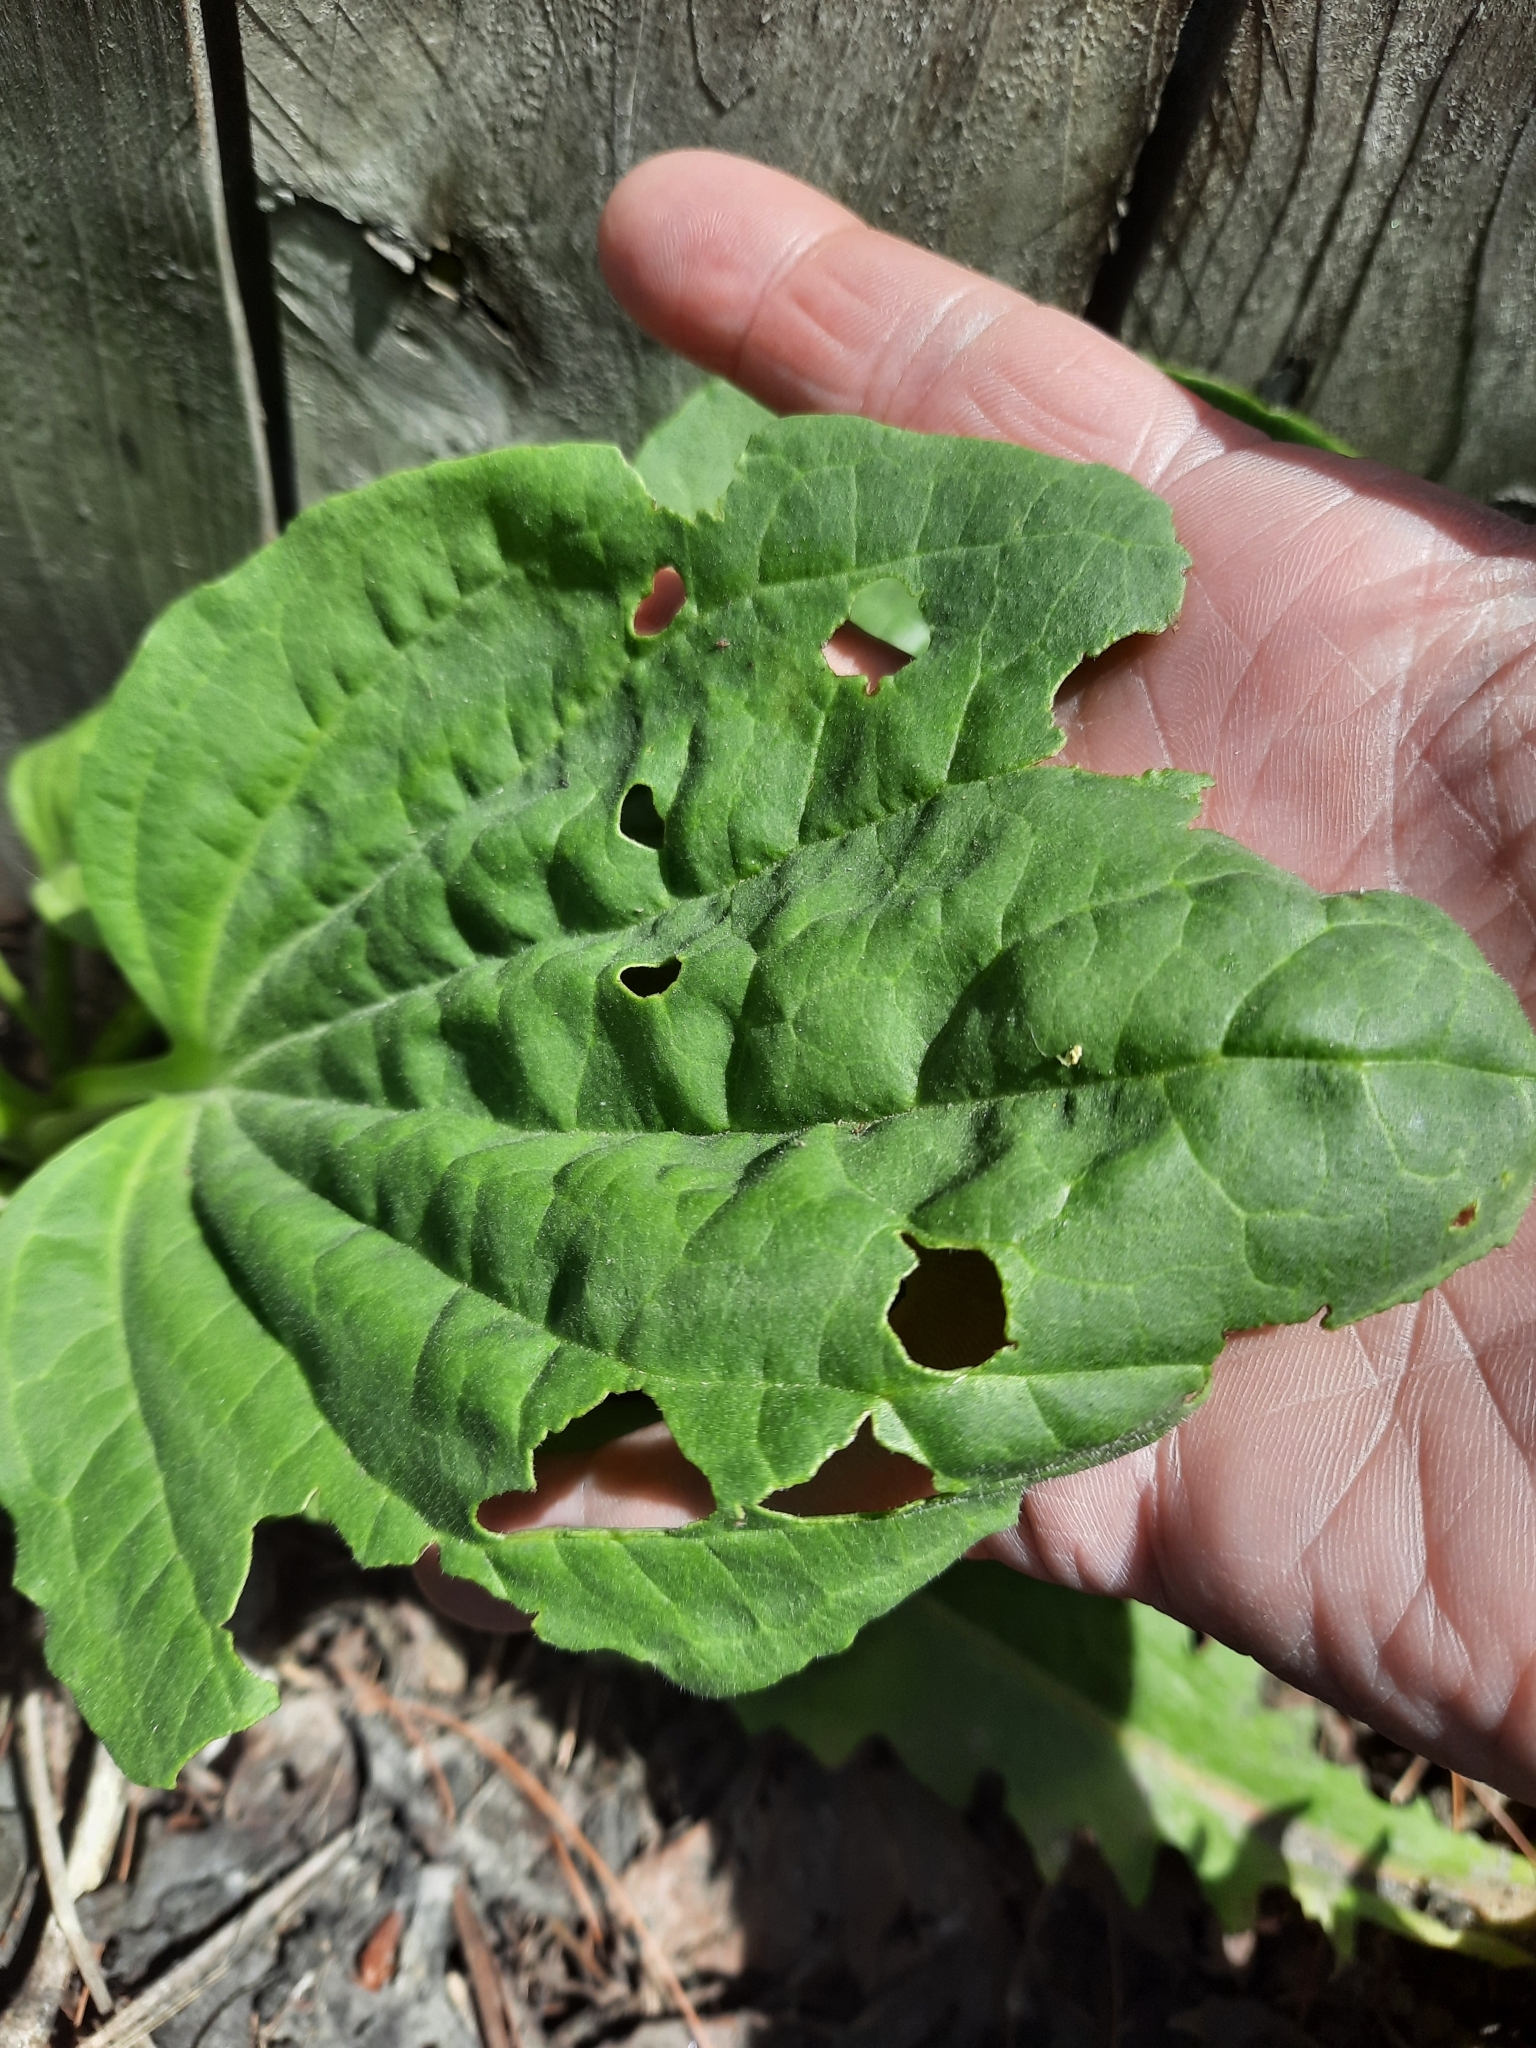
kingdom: Plantae
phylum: Tracheophyta
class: Magnoliopsida
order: Lamiales
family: Plantaginaceae
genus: Plantago
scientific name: Plantago major
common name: Common plantain
